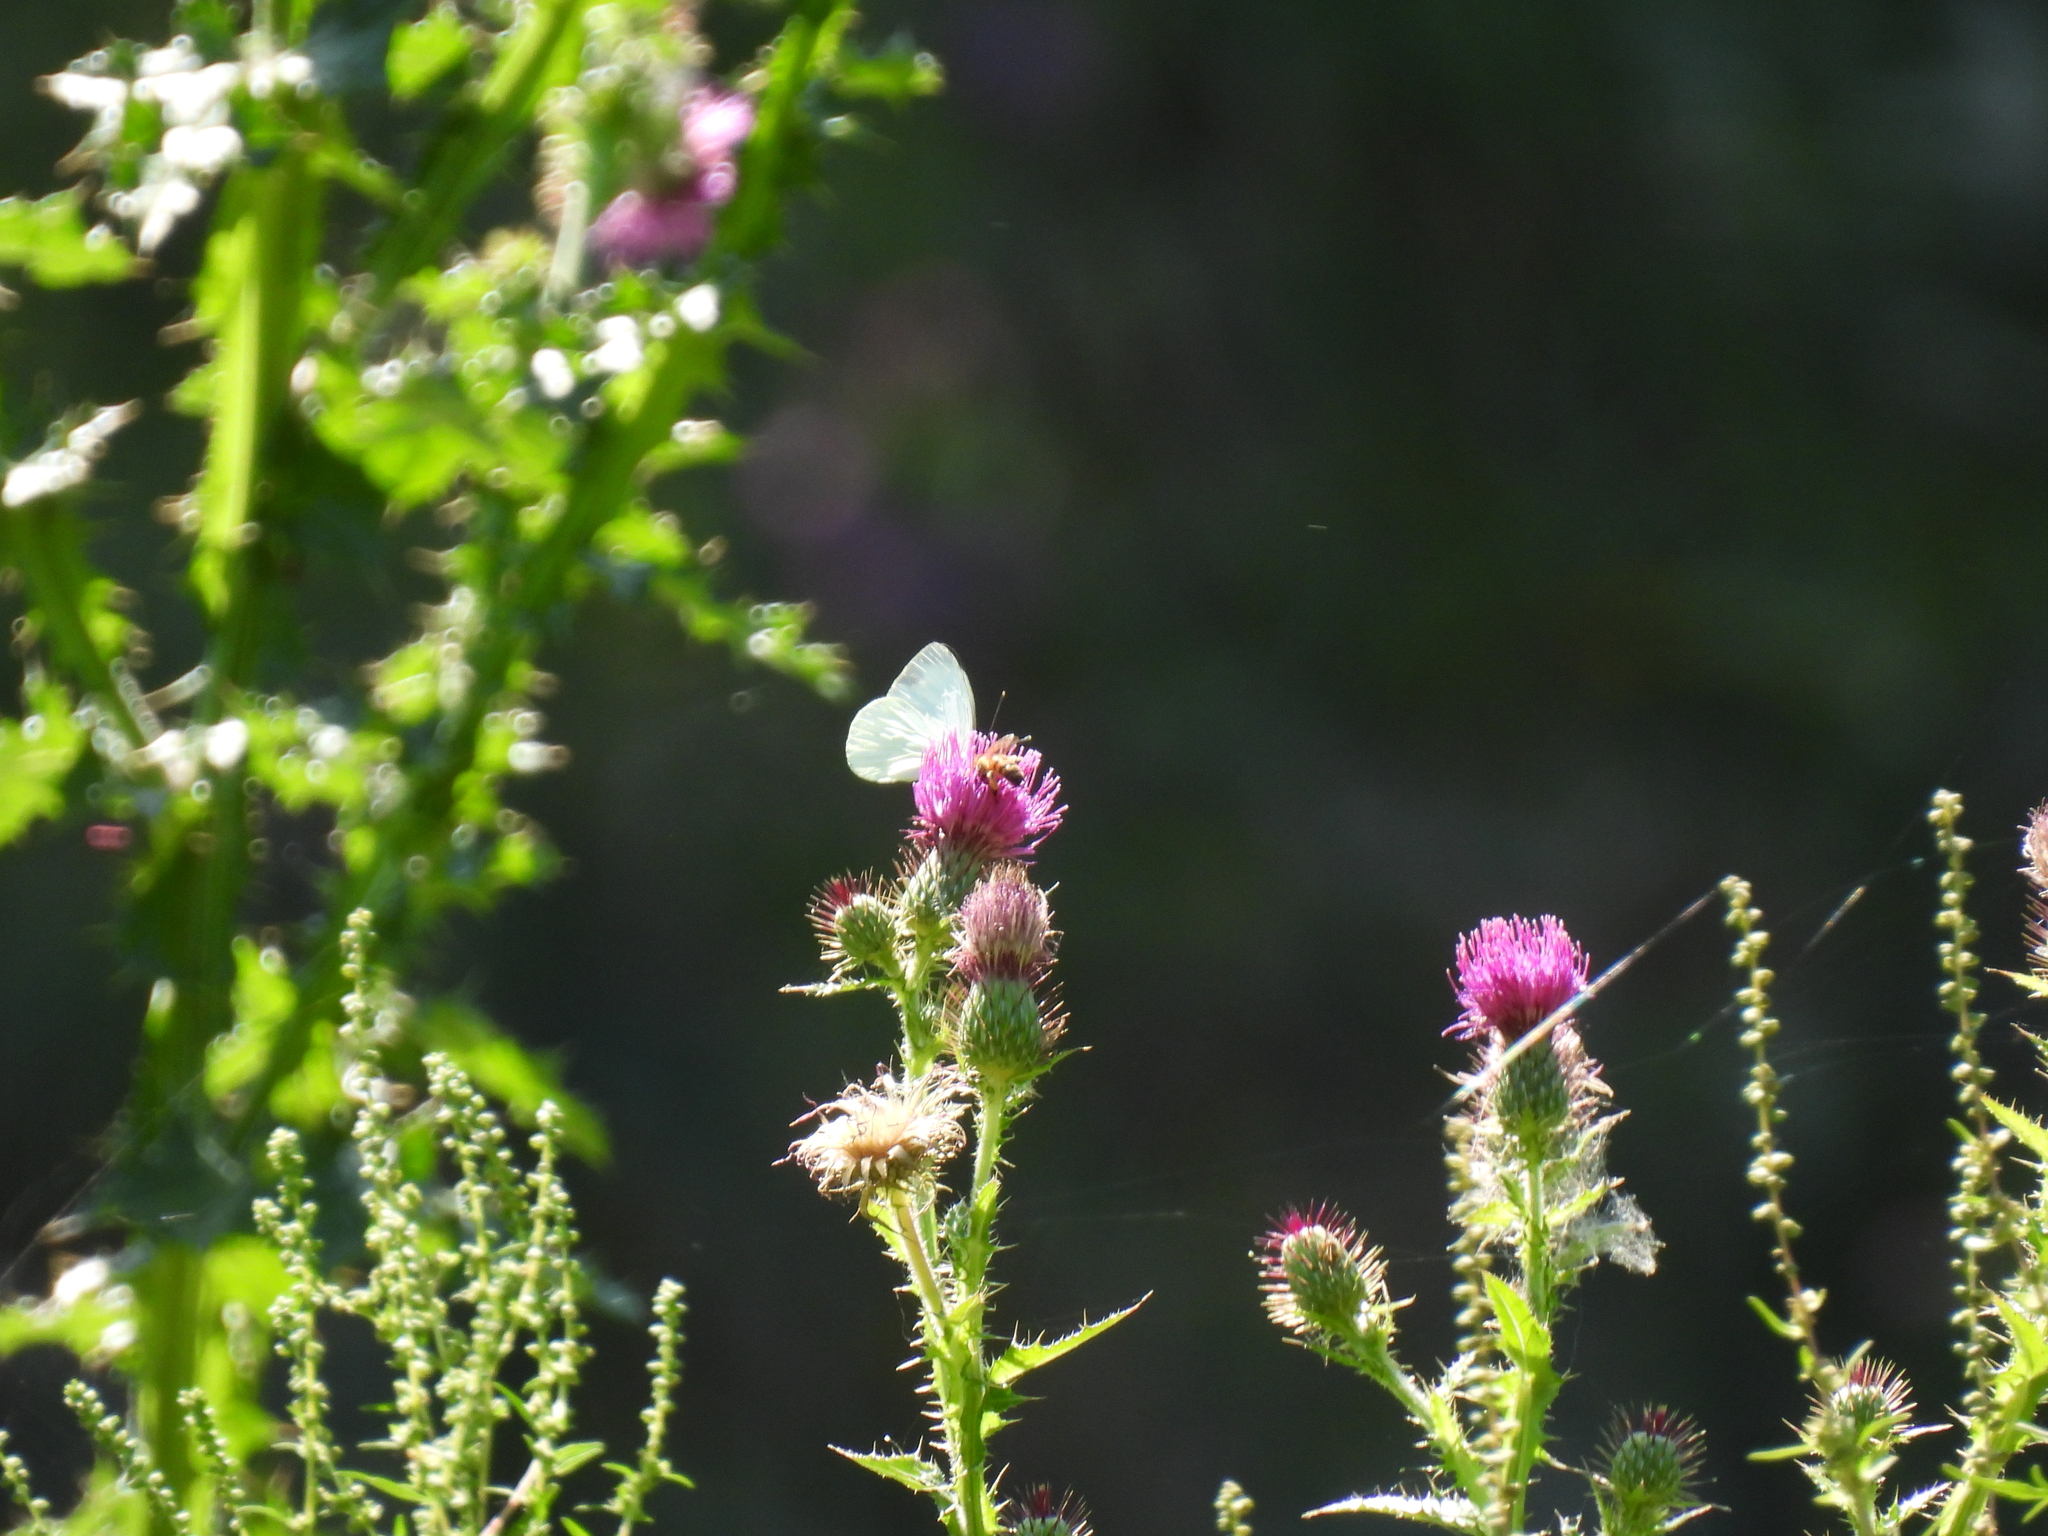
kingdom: Animalia
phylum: Arthropoda
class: Insecta
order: Lepidoptera
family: Pieridae
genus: Leptophobia
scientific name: Leptophobia aripa
